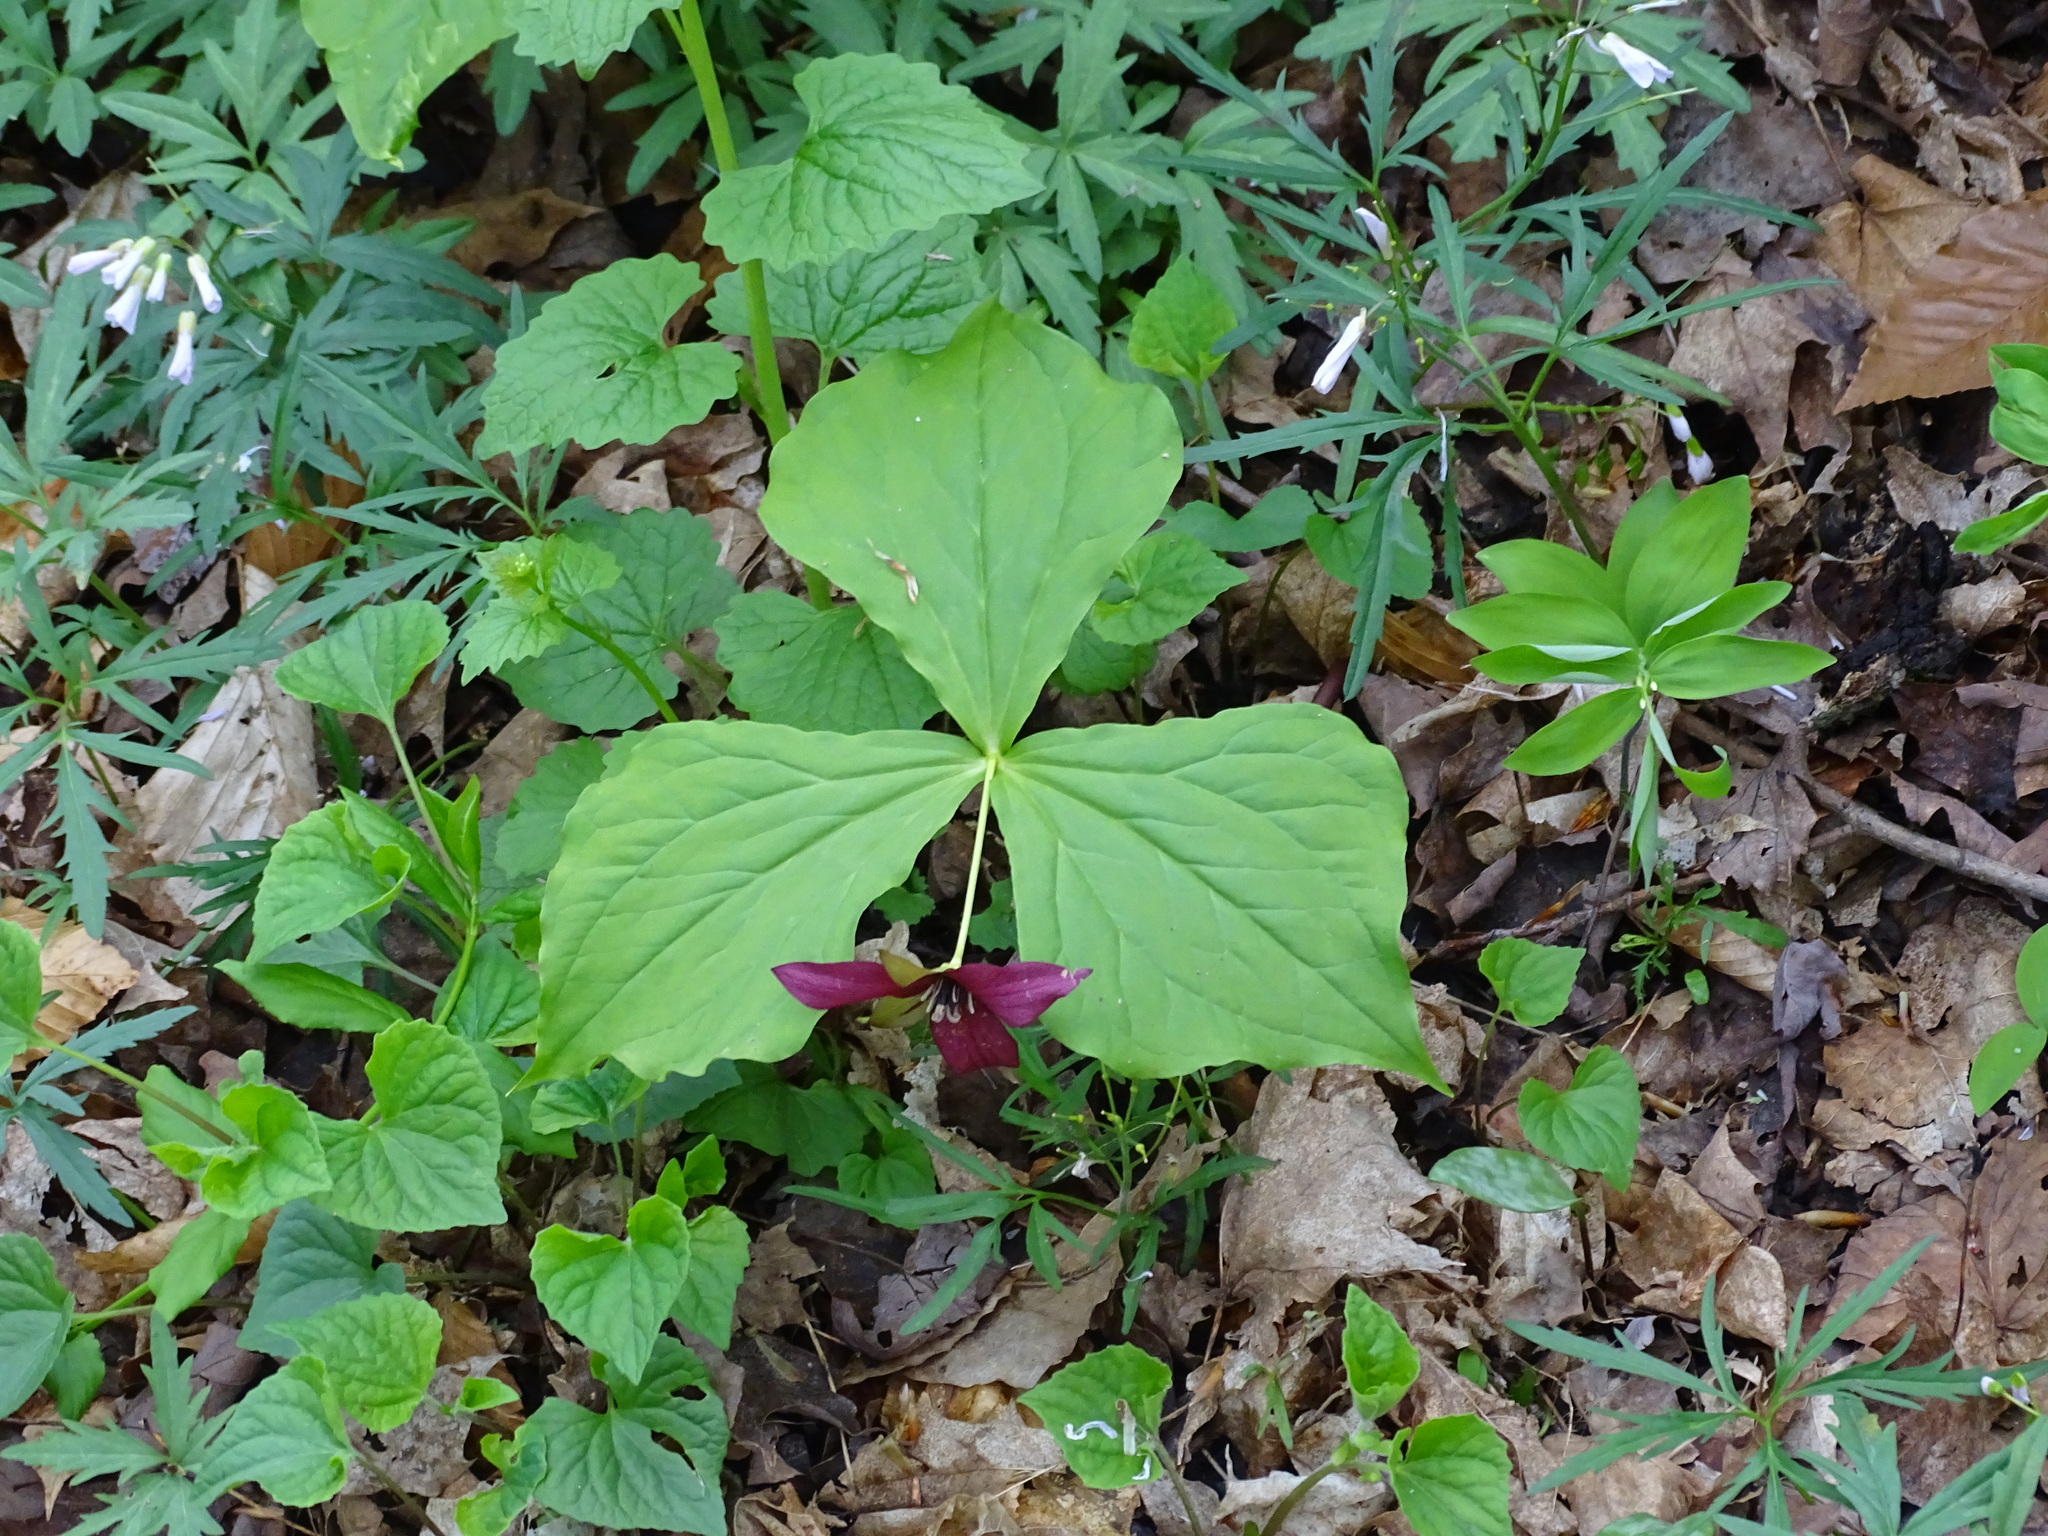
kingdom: Plantae
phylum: Tracheophyta
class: Liliopsida
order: Liliales
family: Melanthiaceae
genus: Trillium
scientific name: Trillium erectum
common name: Purple trillium
